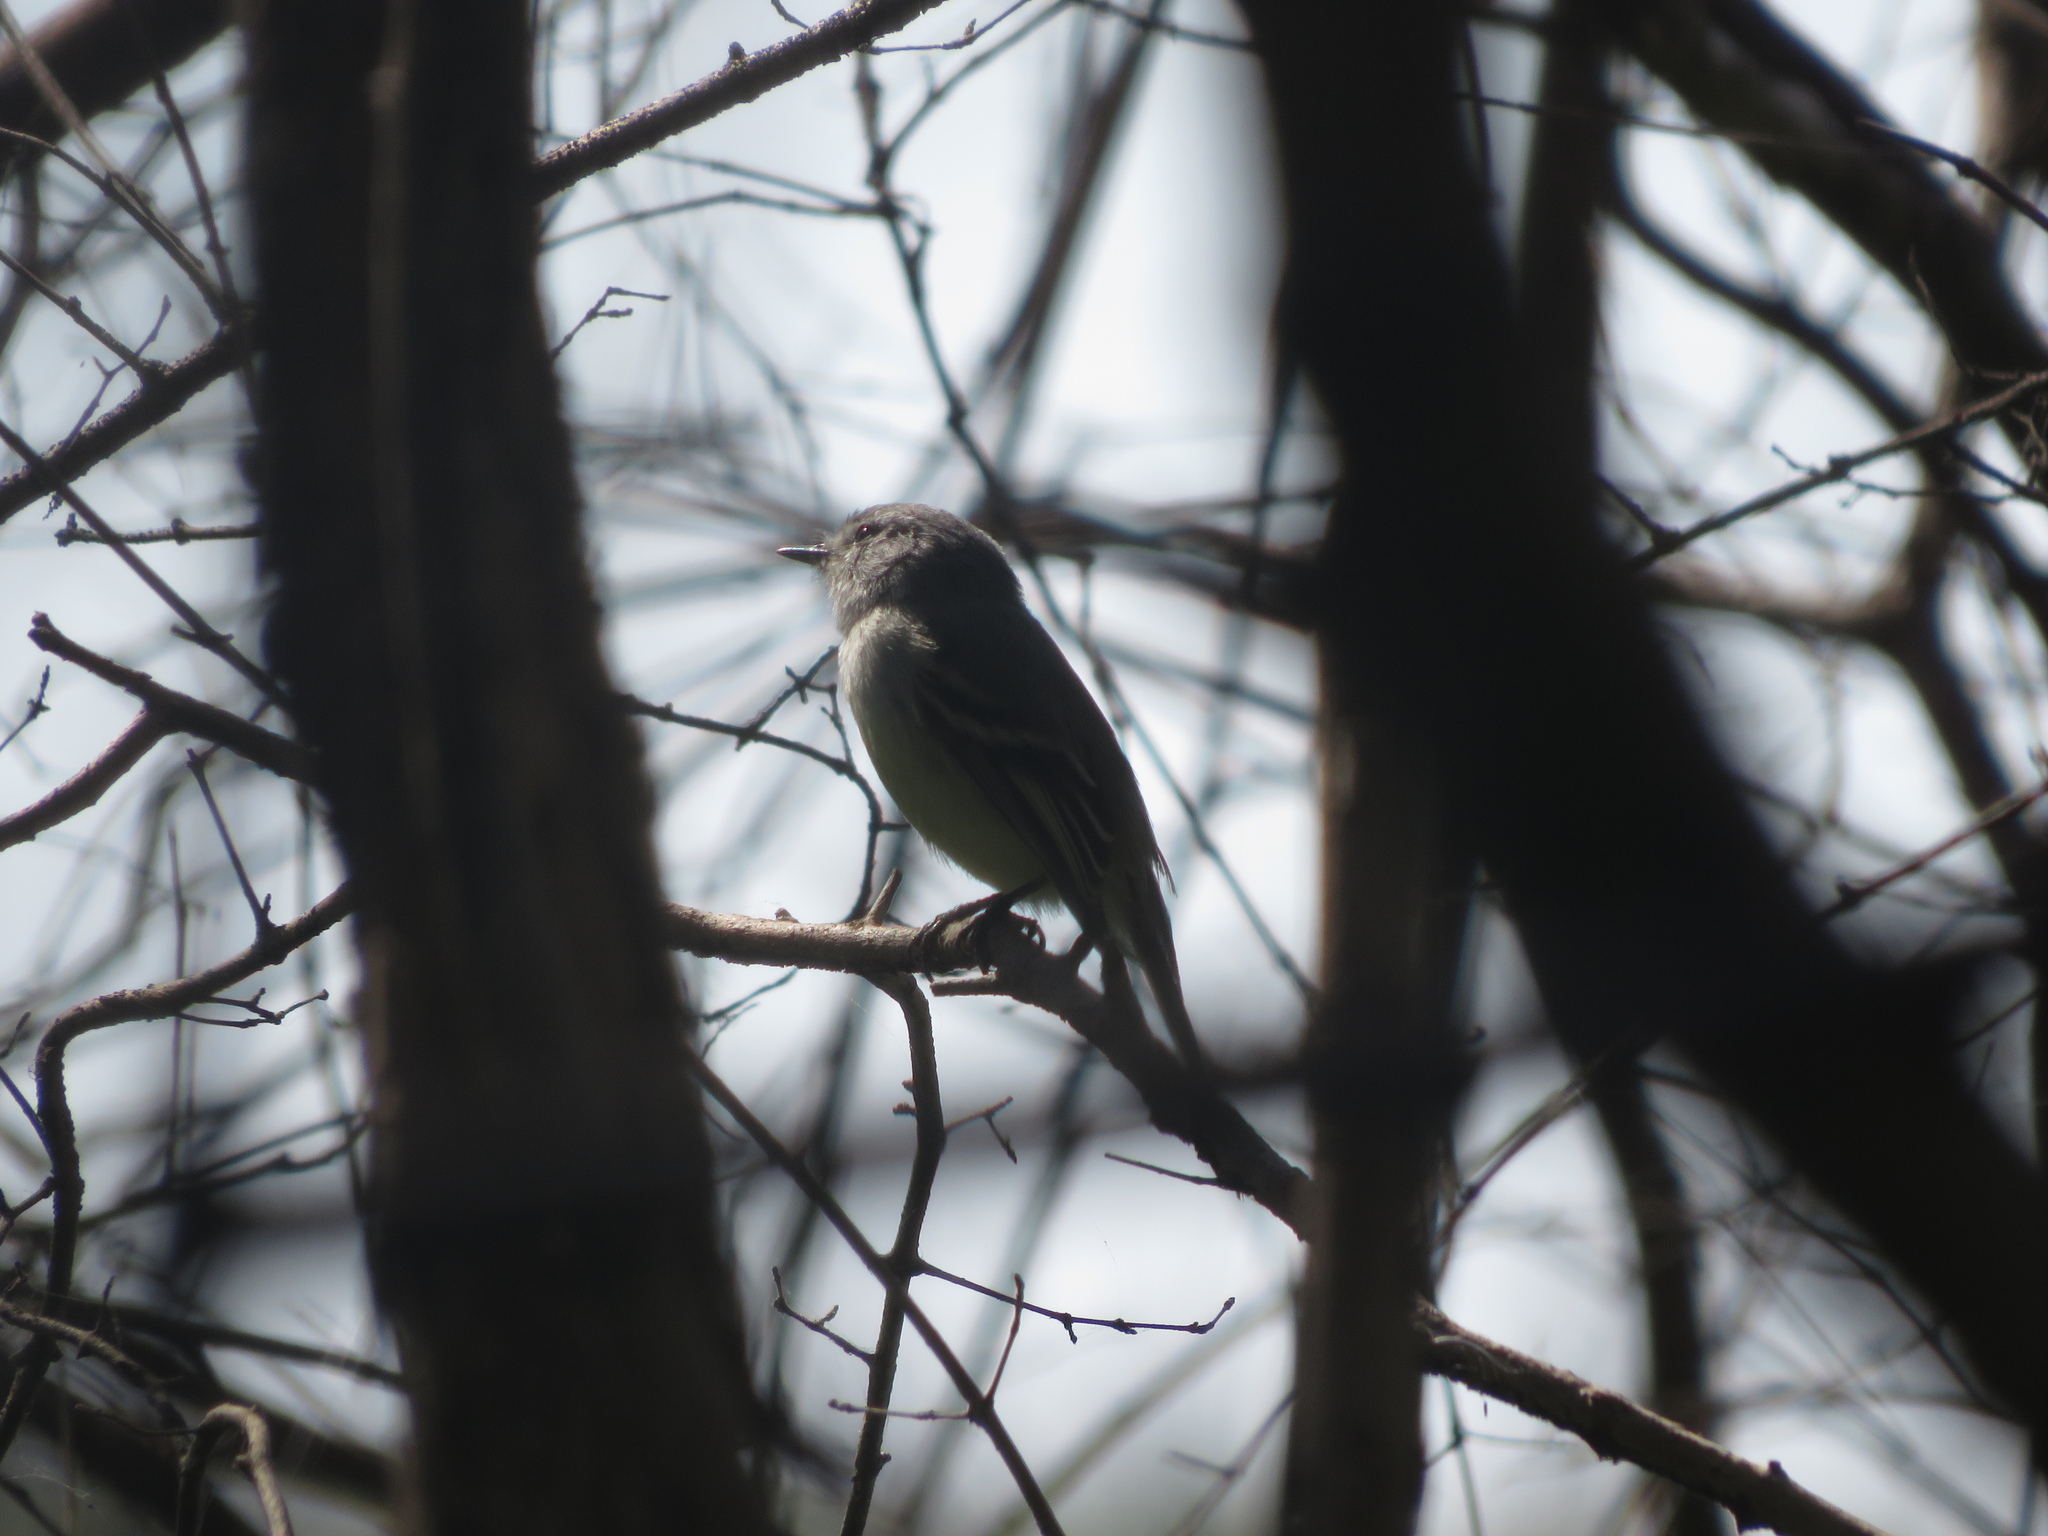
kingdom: Animalia
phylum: Chordata
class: Aves
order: Passeriformes
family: Tyrannidae
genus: Suiriri
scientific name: Suiriri suiriri
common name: Suiriri flycatcher
